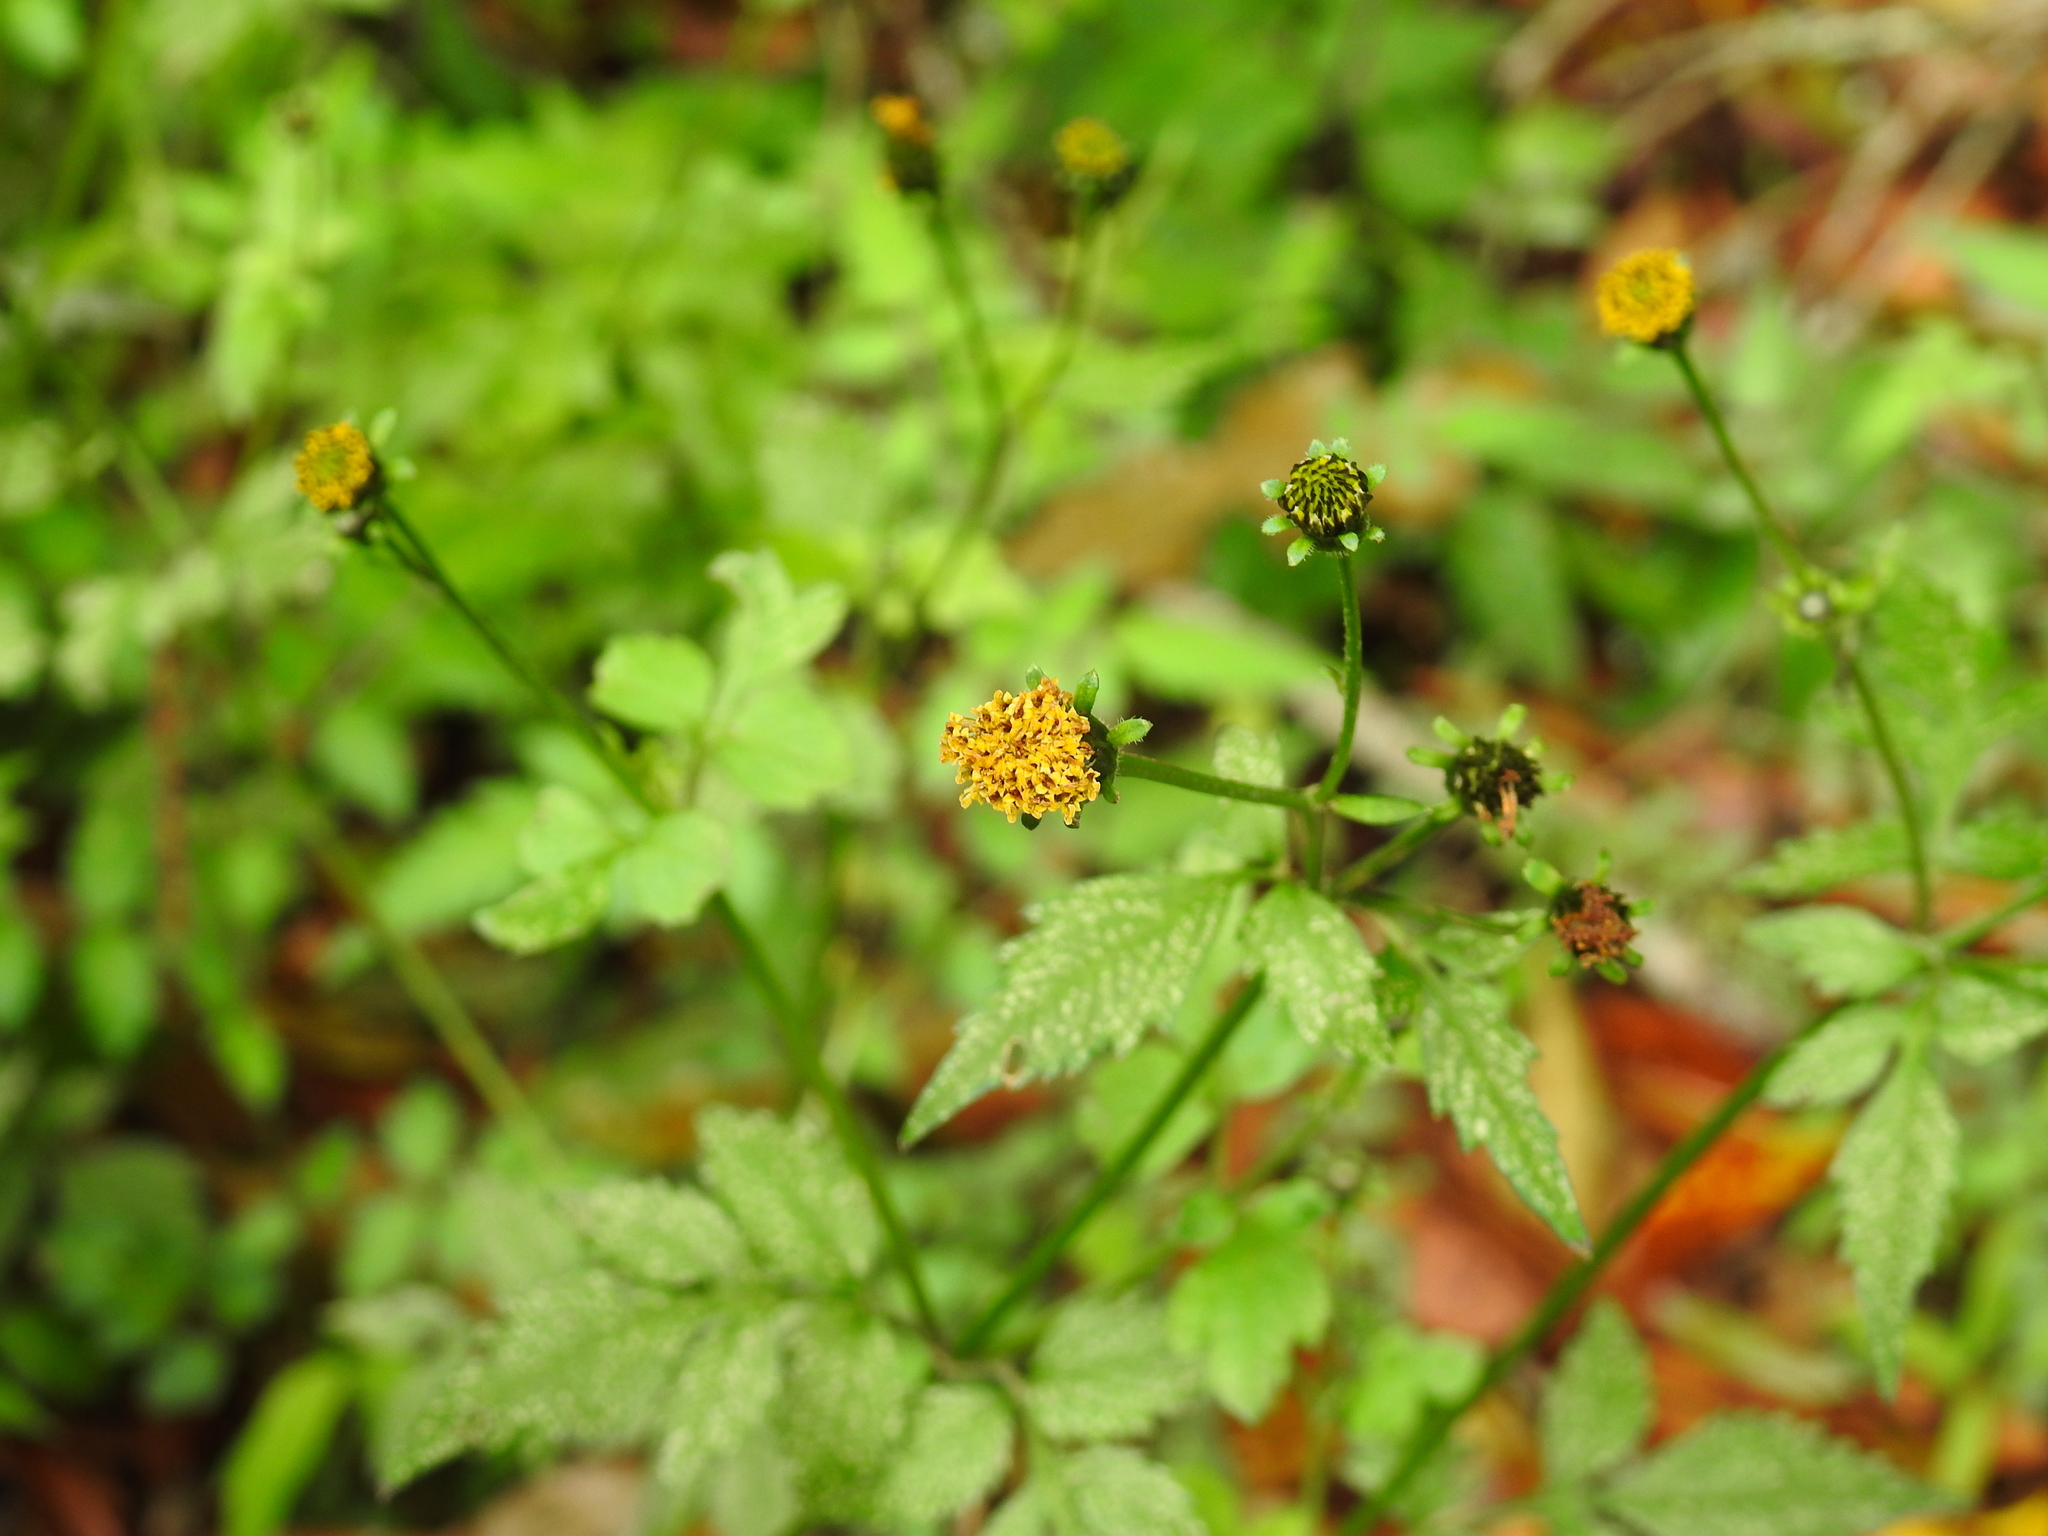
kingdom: Plantae
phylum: Tracheophyta
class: Magnoliopsida
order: Asterales
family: Asteraceae
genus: Bidens
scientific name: Bidens pilosa
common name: Black-jack
